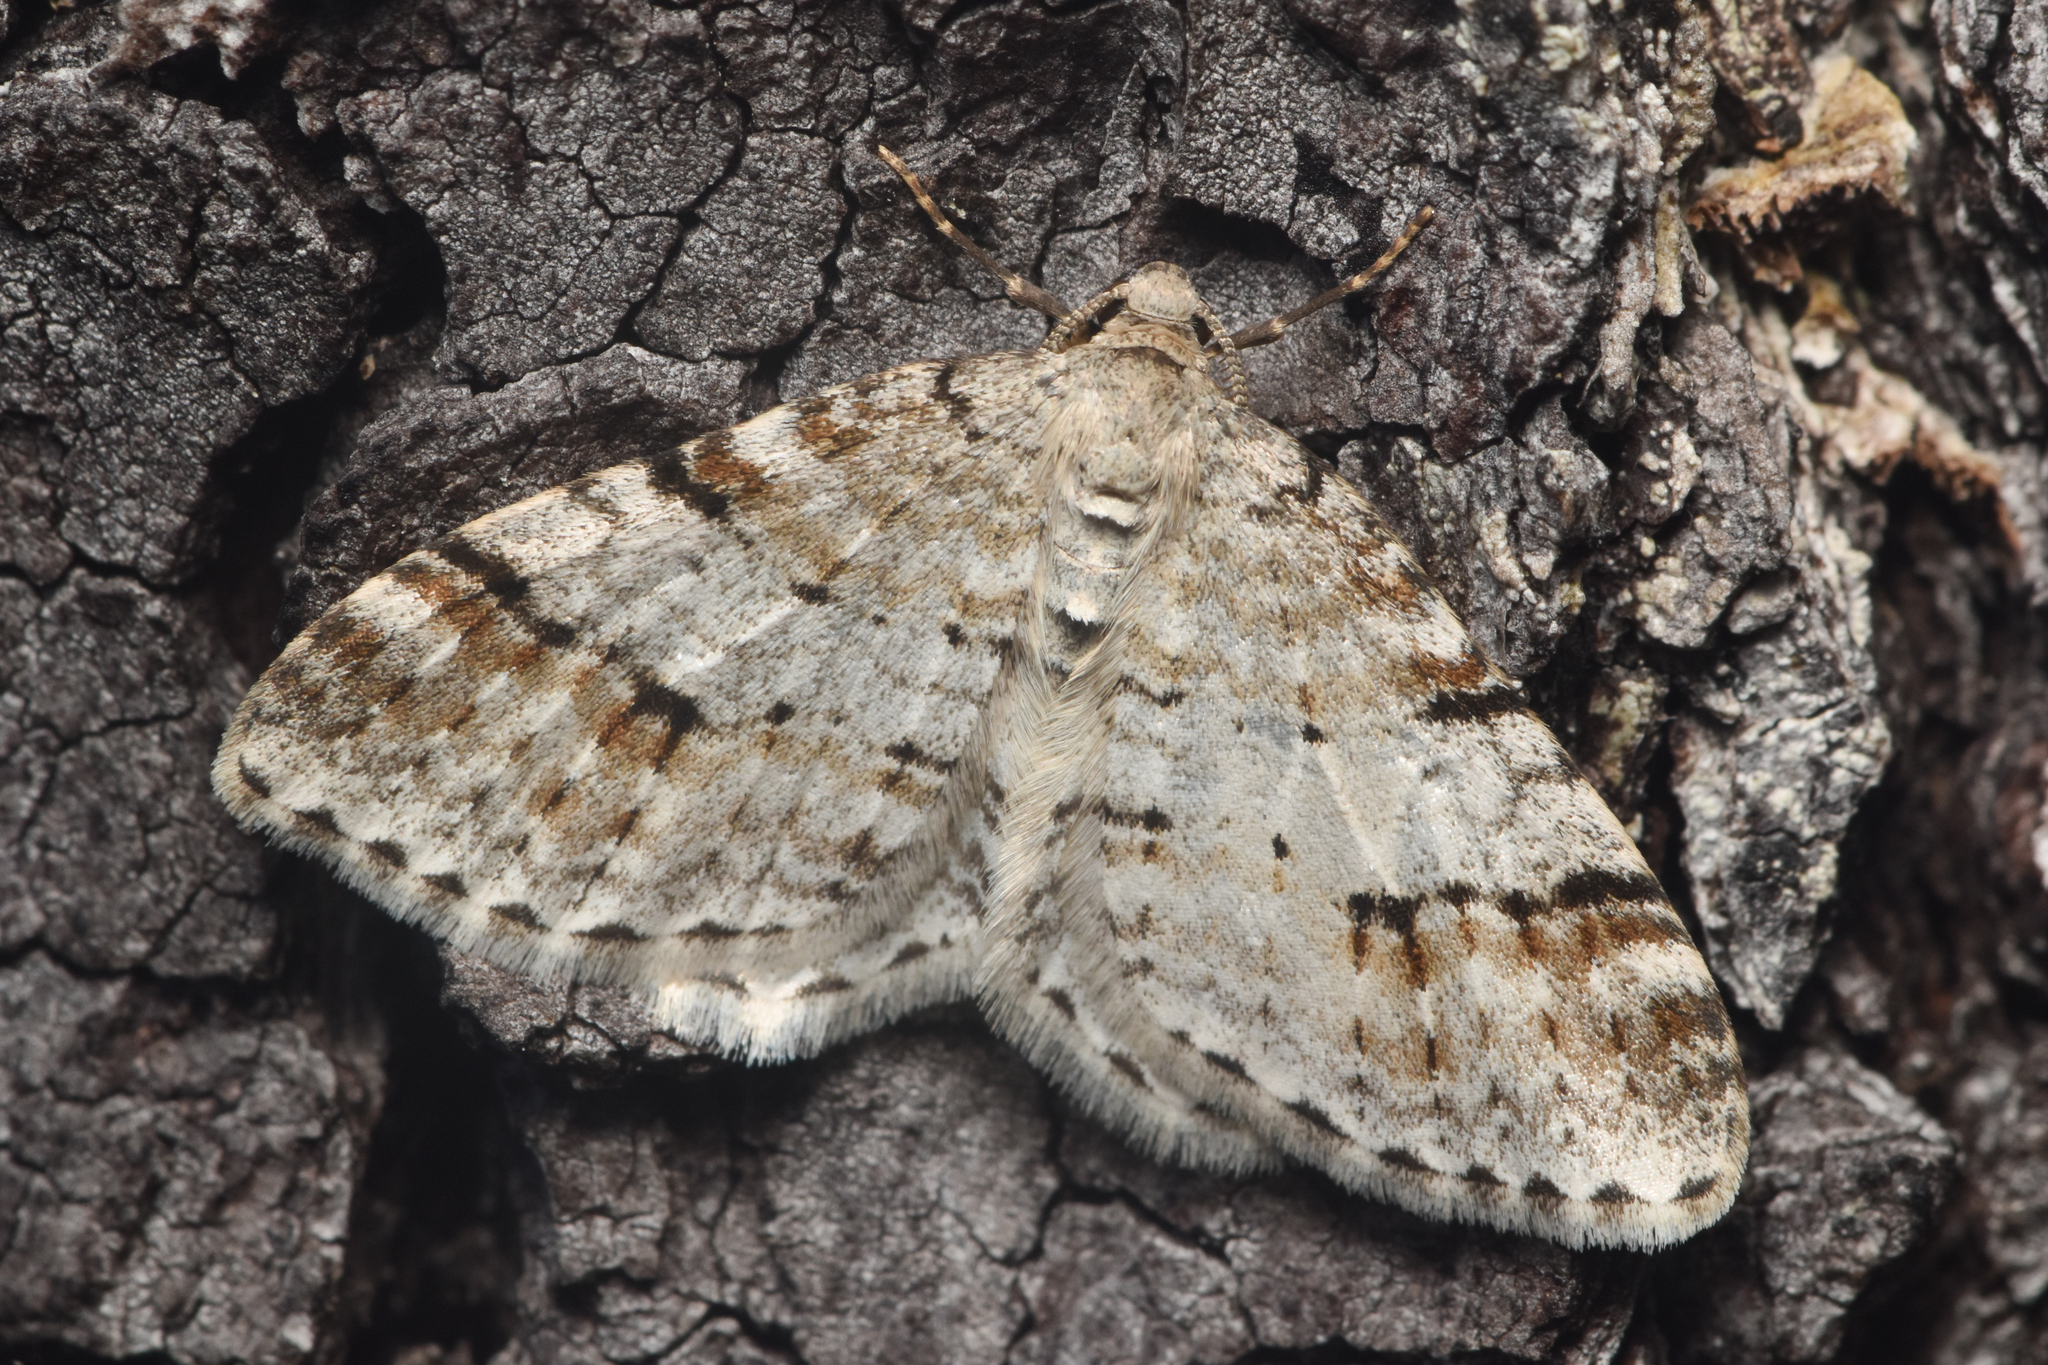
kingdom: Animalia
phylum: Arthropoda
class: Insecta
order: Lepidoptera
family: Geometridae
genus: Venusia
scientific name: Venusia cambrica
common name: Welsh wave
